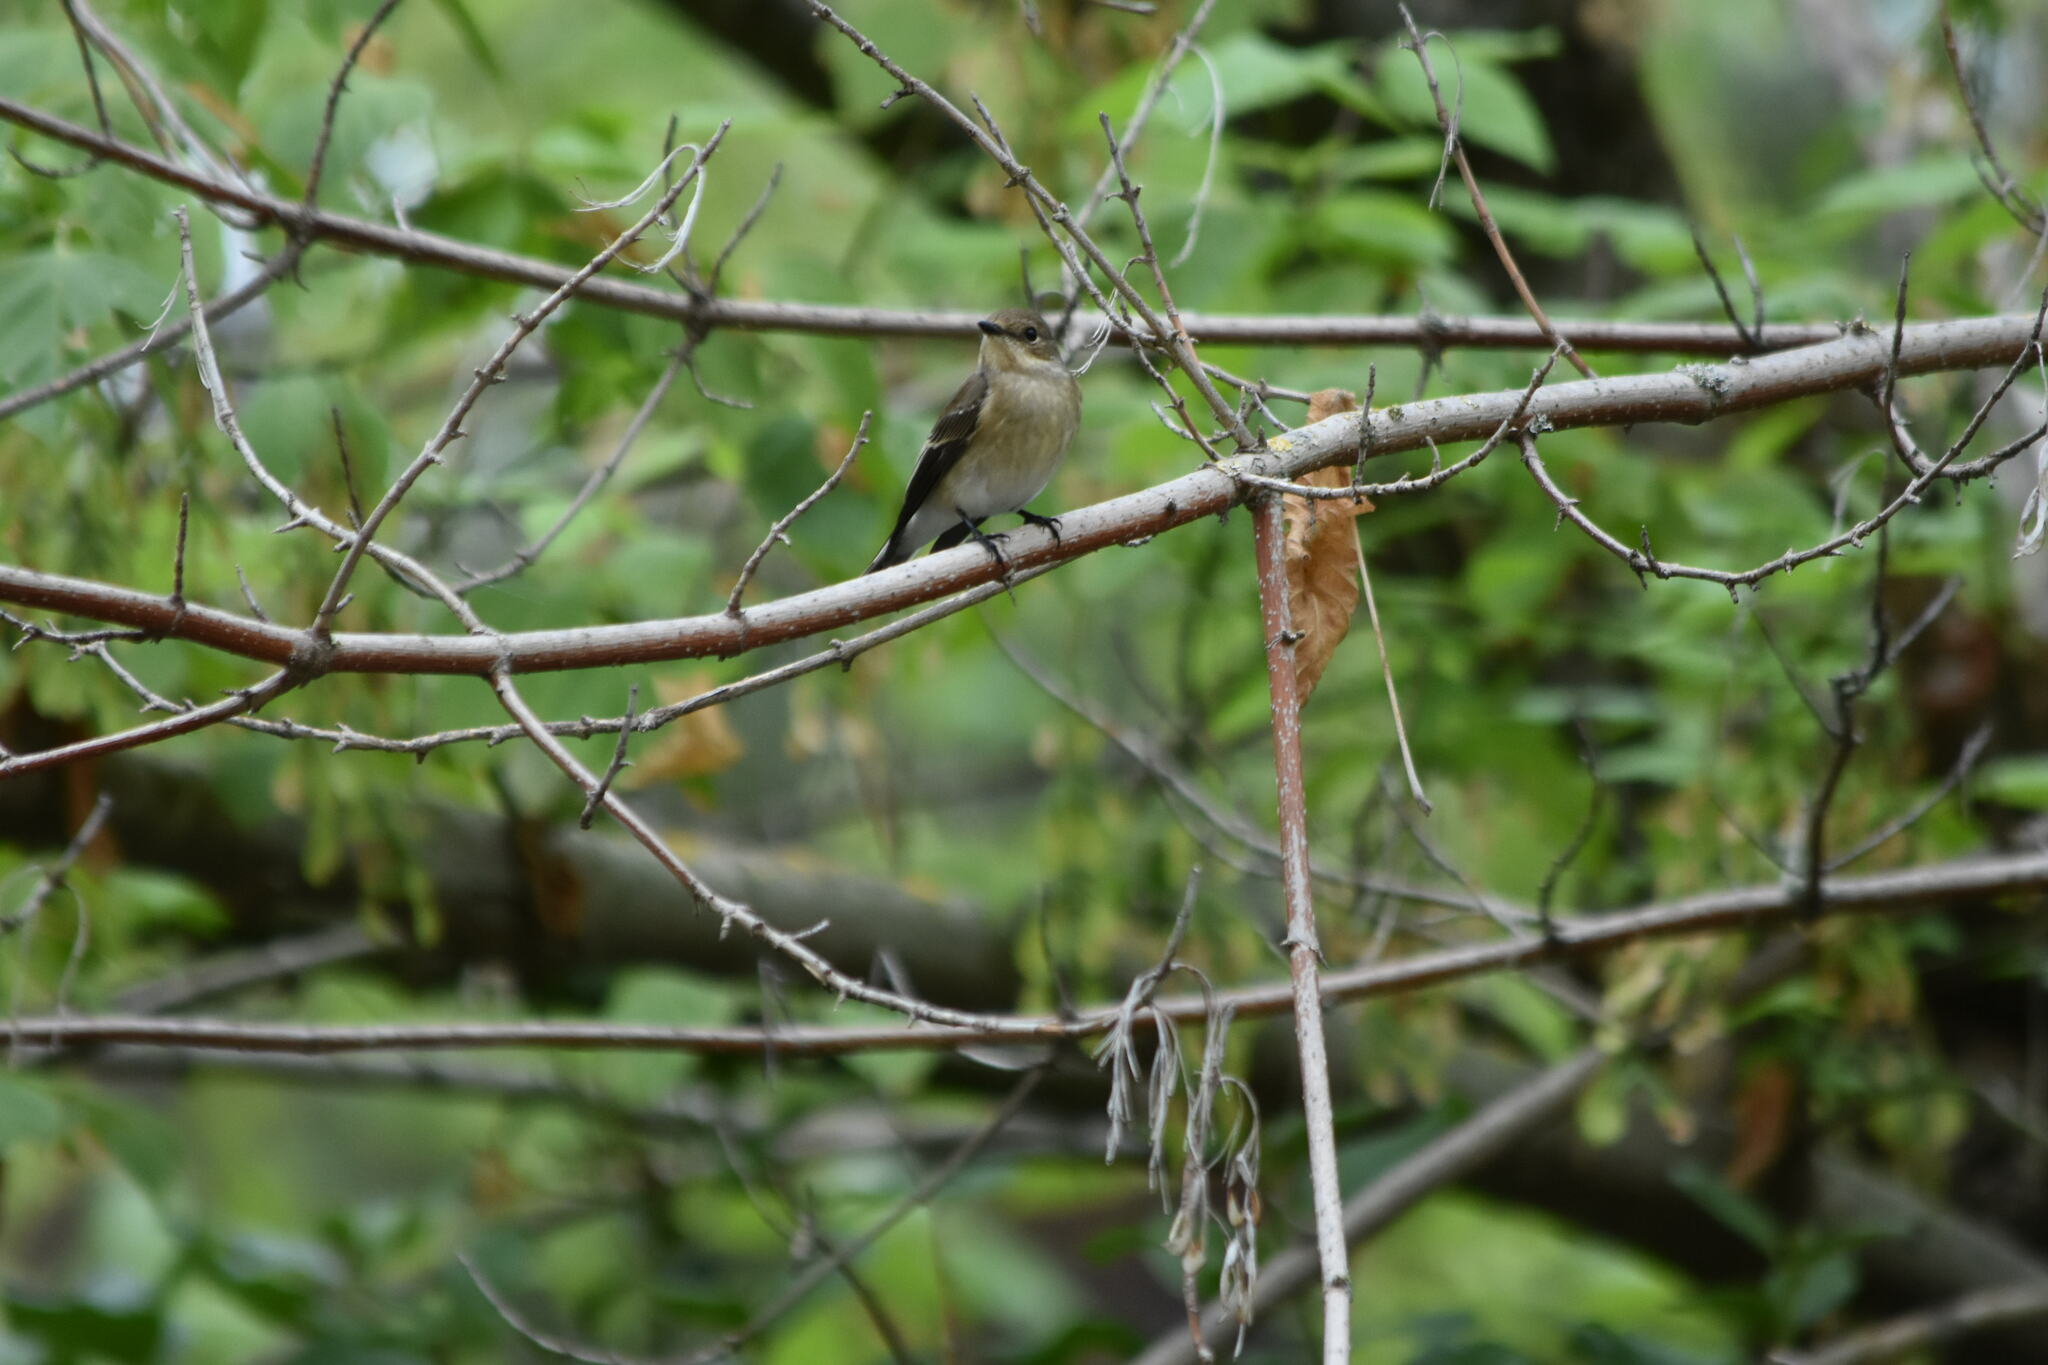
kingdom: Animalia
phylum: Chordata
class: Aves
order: Passeriformes
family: Muscicapidae
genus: Ficedula
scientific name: Ficedula hypoleuca
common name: European pied flycatcher
